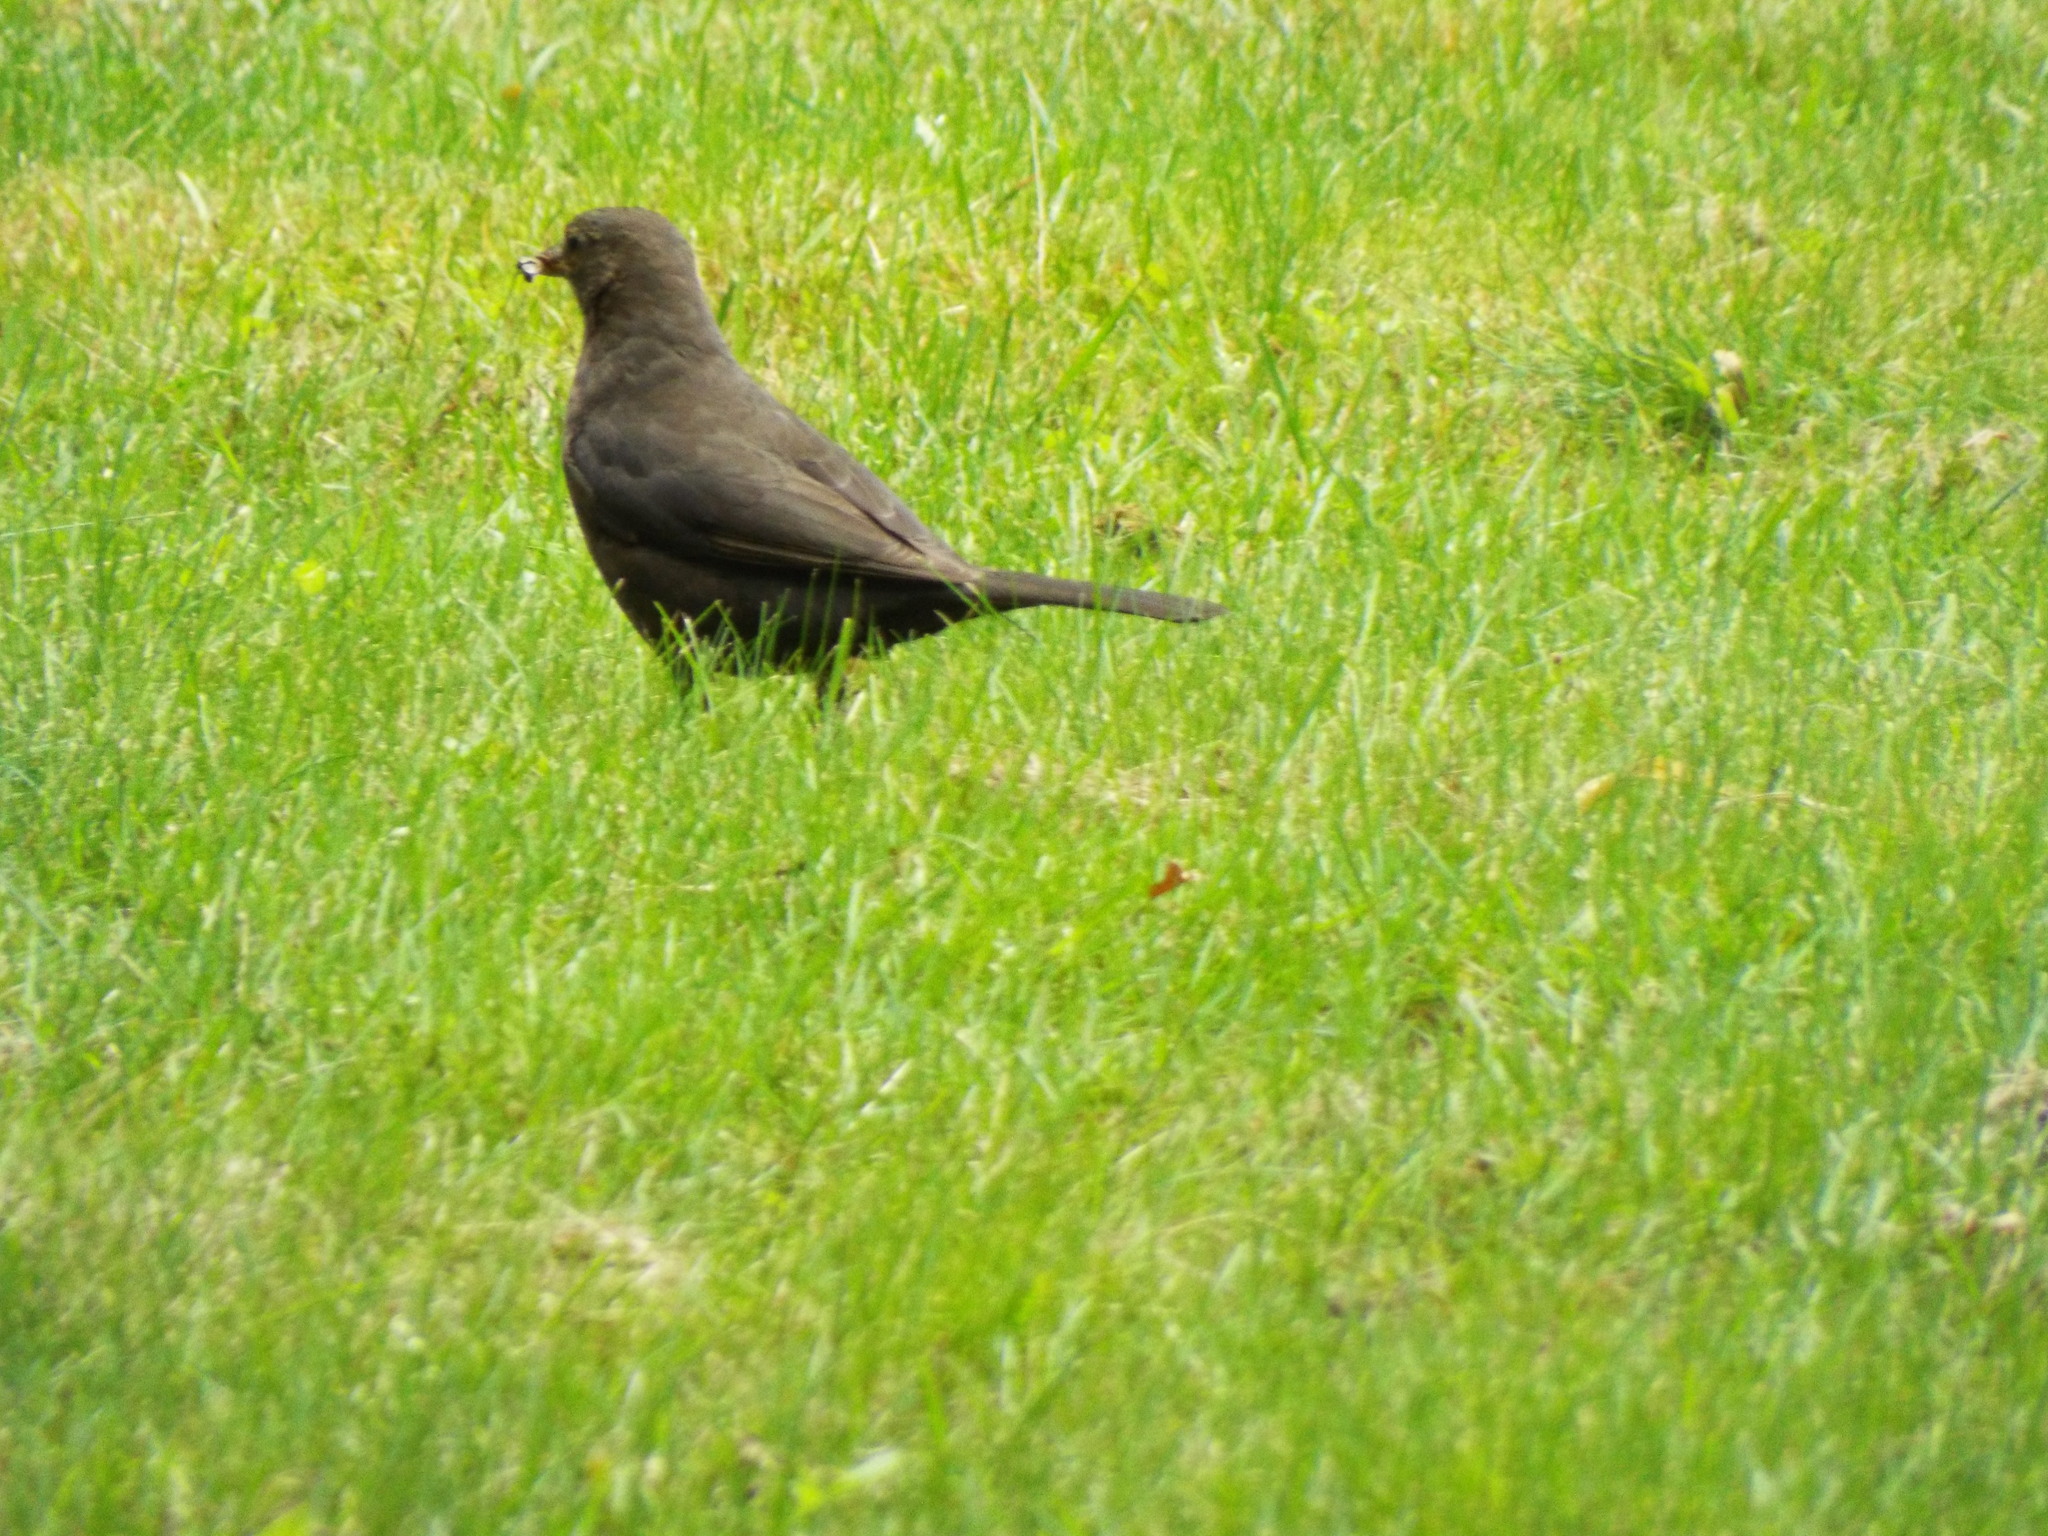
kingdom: Animalia
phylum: Chordata
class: Aves
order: Passeriformes
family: Turdidae
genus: Turdus
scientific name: Turdus merula
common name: Common blackbird
